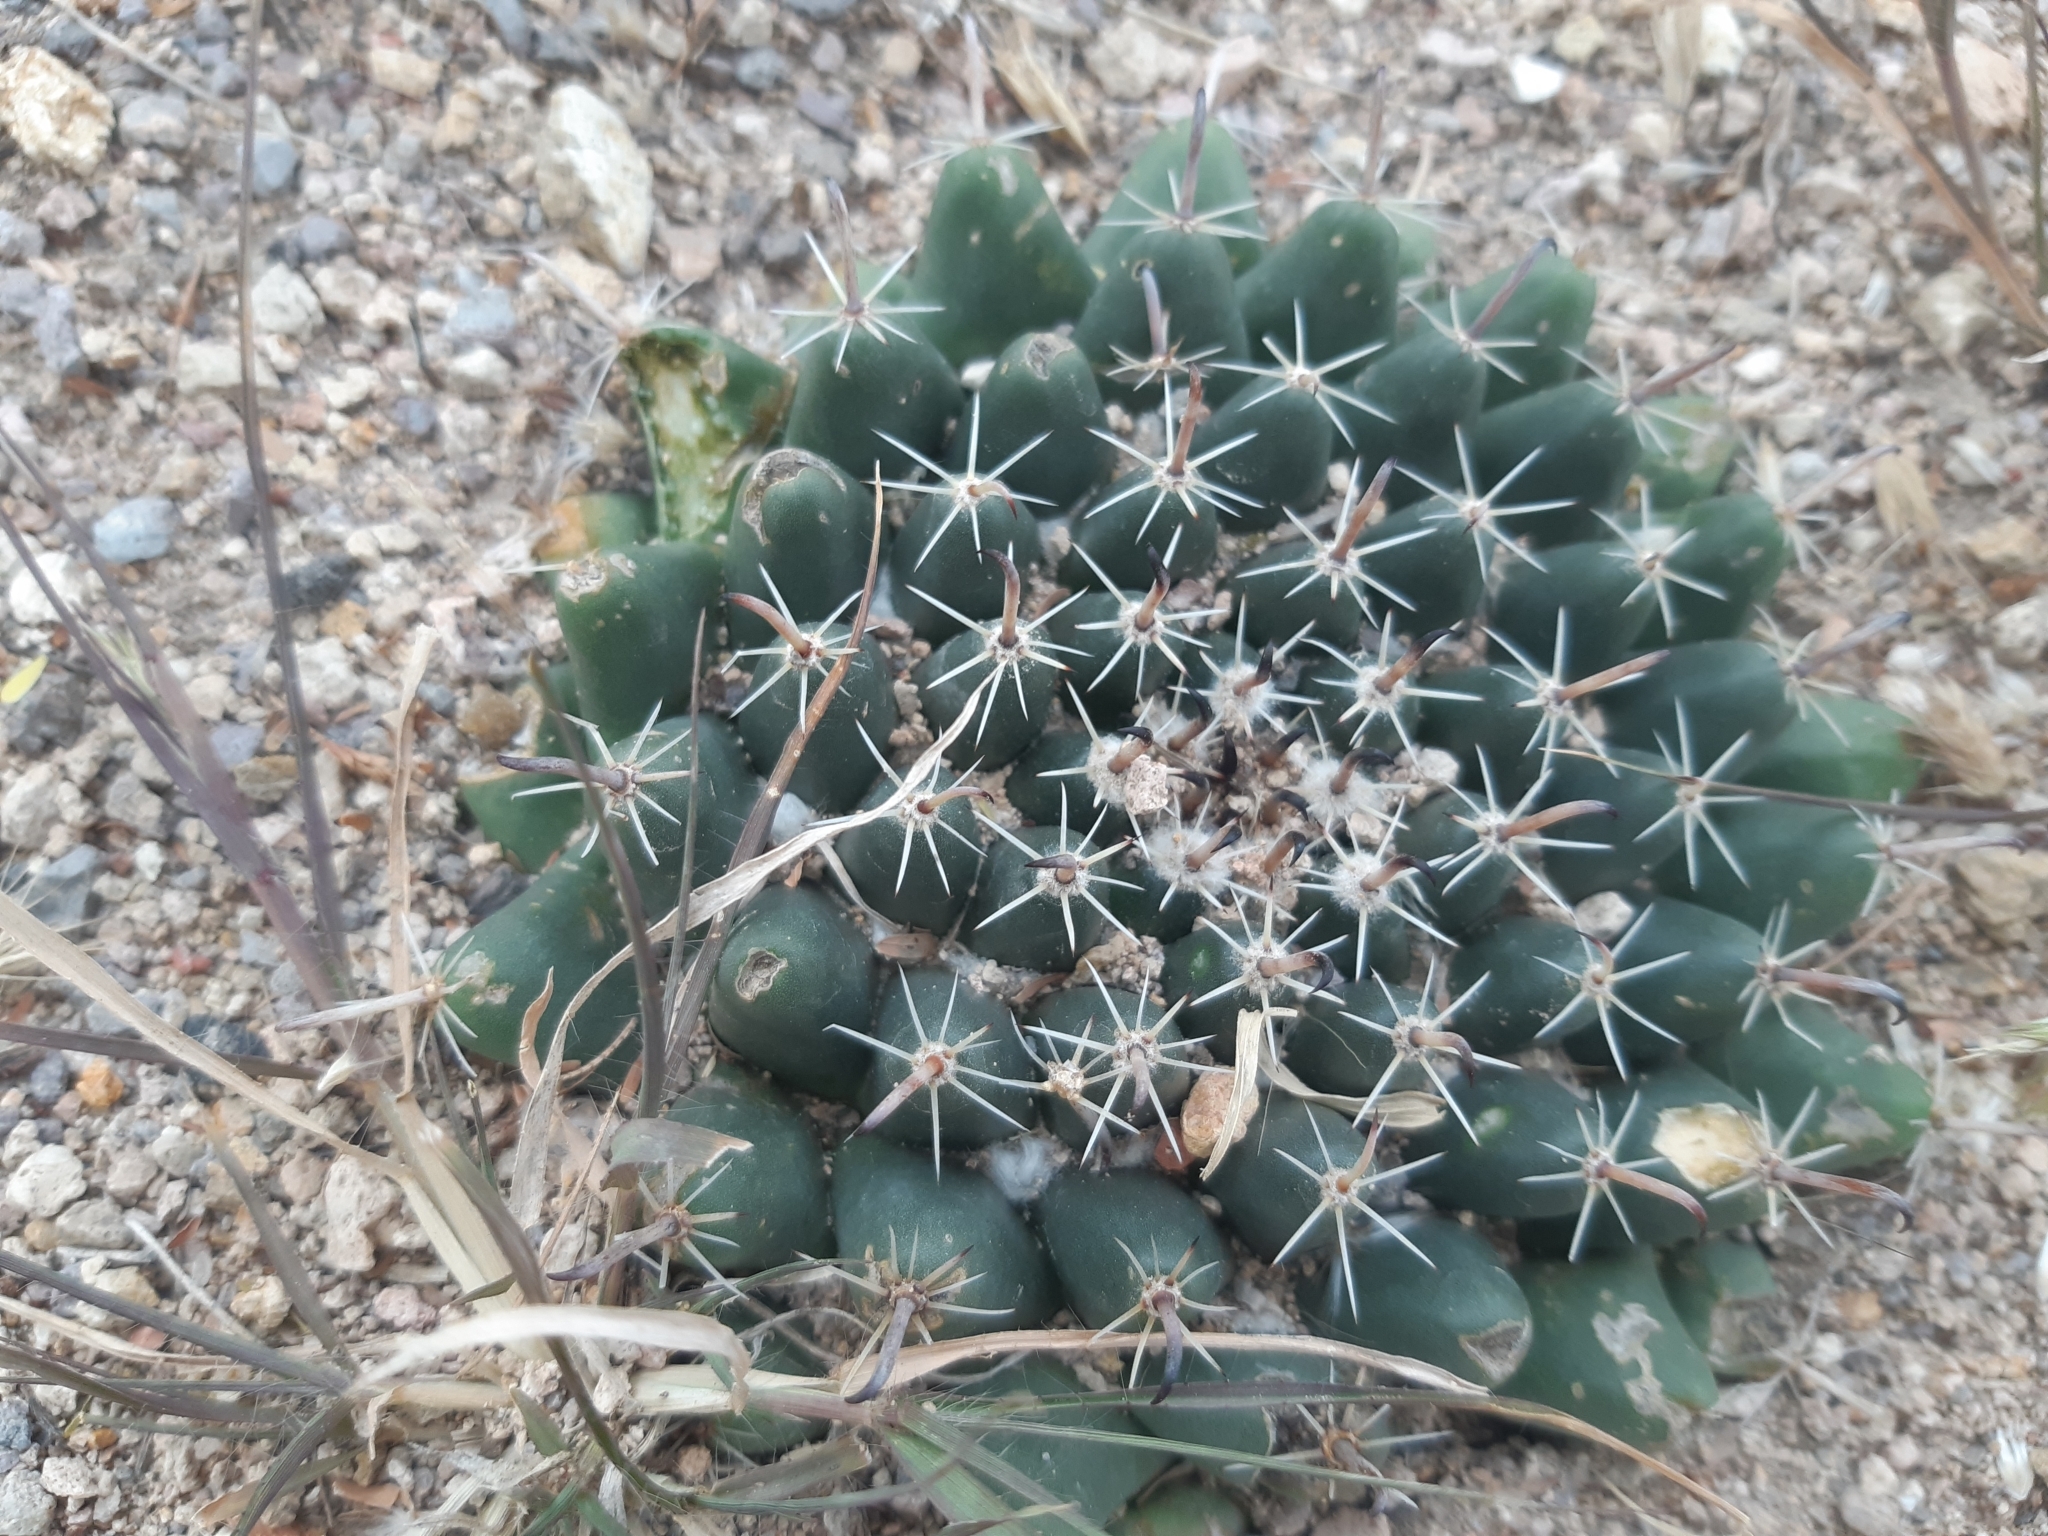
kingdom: Plantae
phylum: Tracheophyta
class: Magnoliopsida
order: Caryophyllales
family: Cactaceae
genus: Mammillaria
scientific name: Mammillaria uncinata
